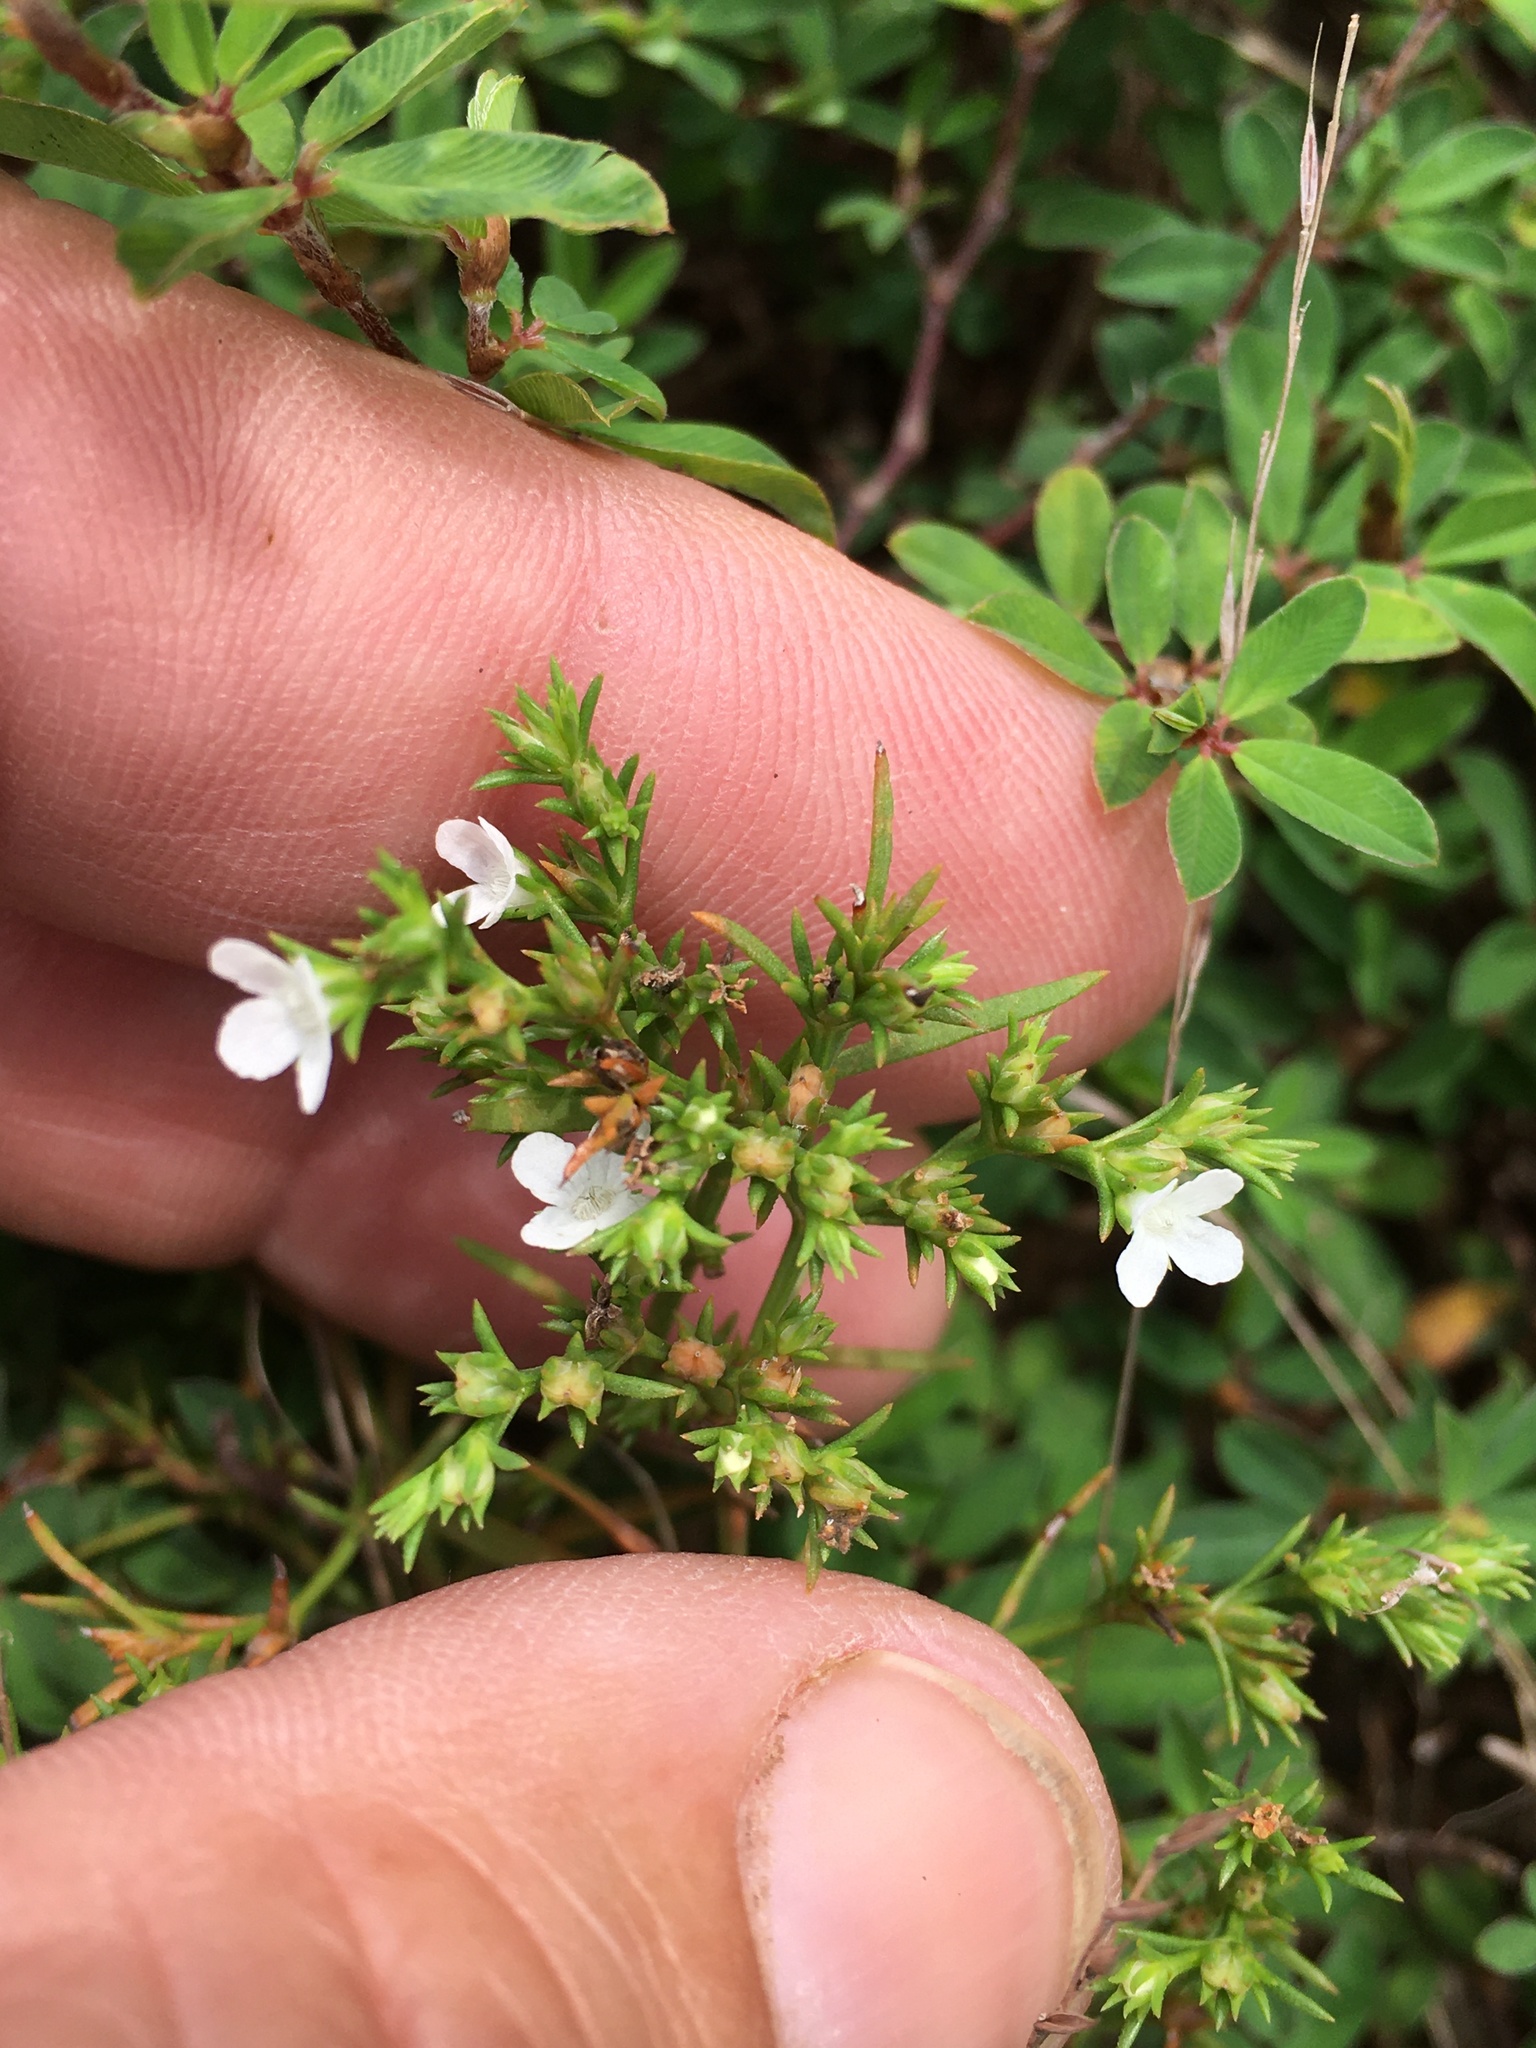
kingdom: Plantae
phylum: Tracheophyta
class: Magnoliopsida
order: Lamiales
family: Tetrachondraceae
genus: Polypremum
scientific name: Polypremum procumbens
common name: Juniper-leaf
